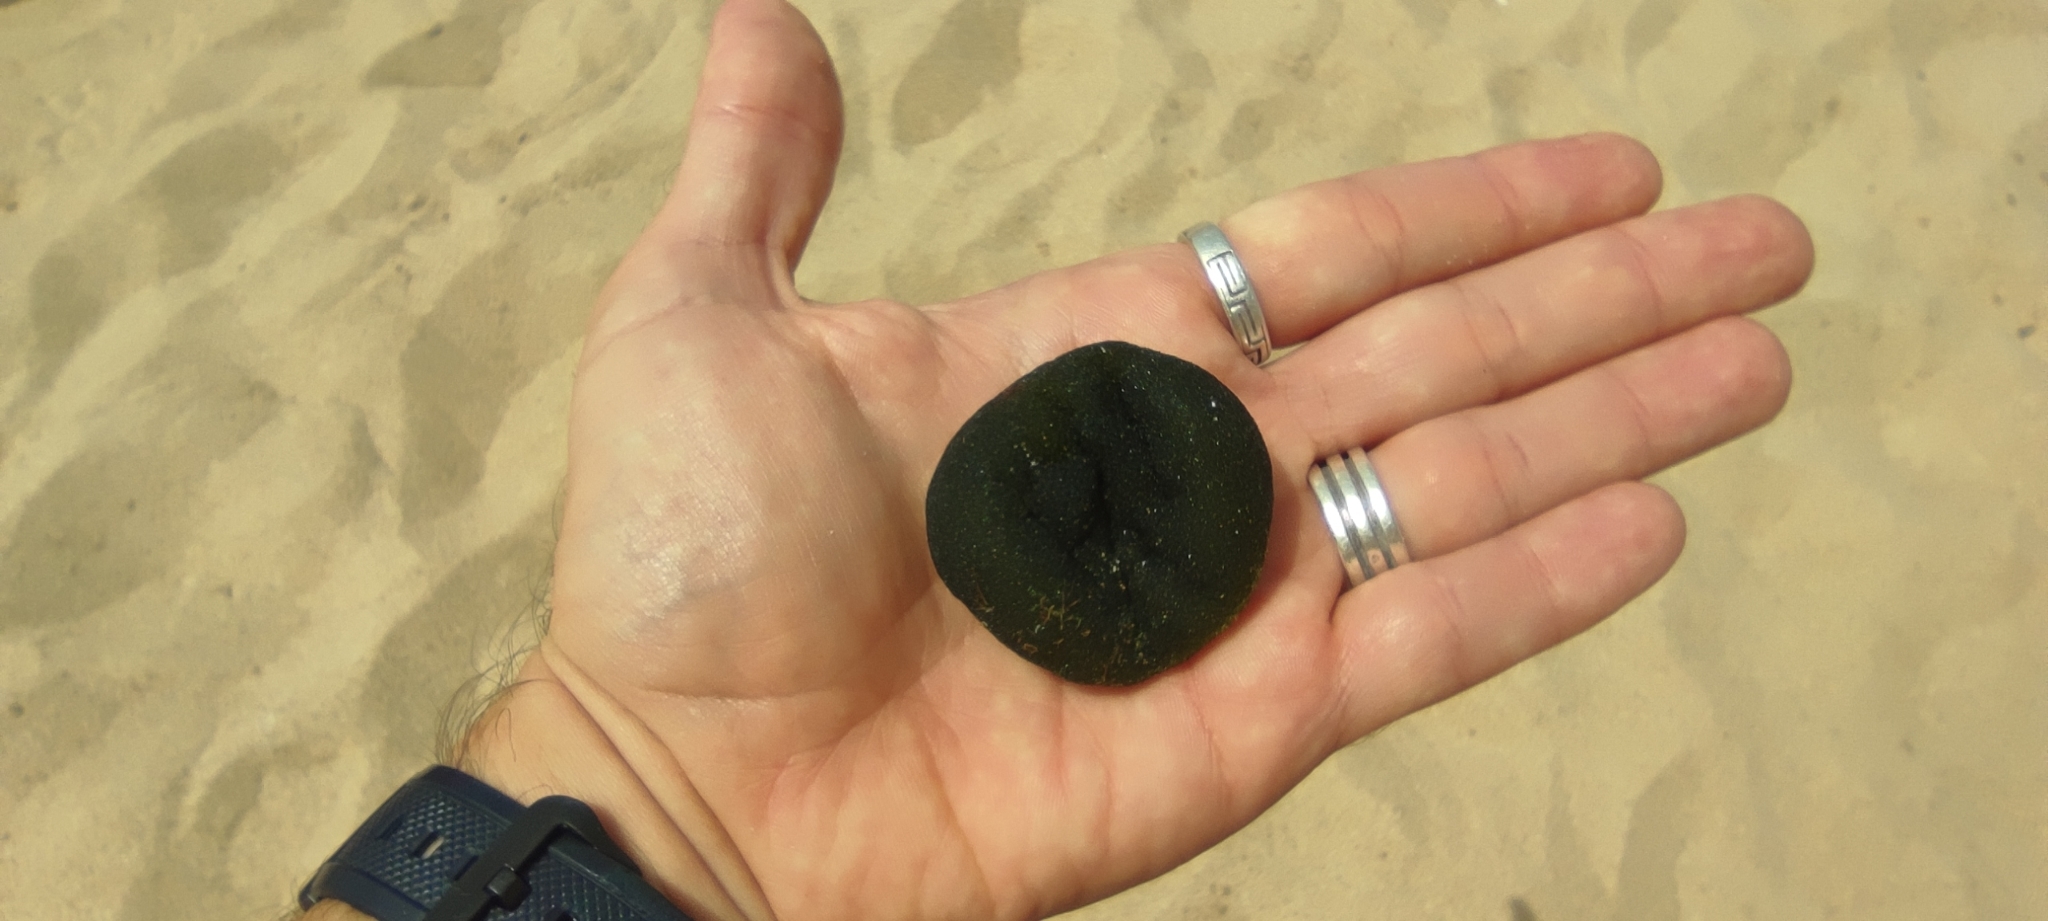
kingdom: Plantae
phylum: Chlorophyta
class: Ulvophyceae
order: Bryopsidales
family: Codiaceae
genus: Codium
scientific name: Codium bursa
